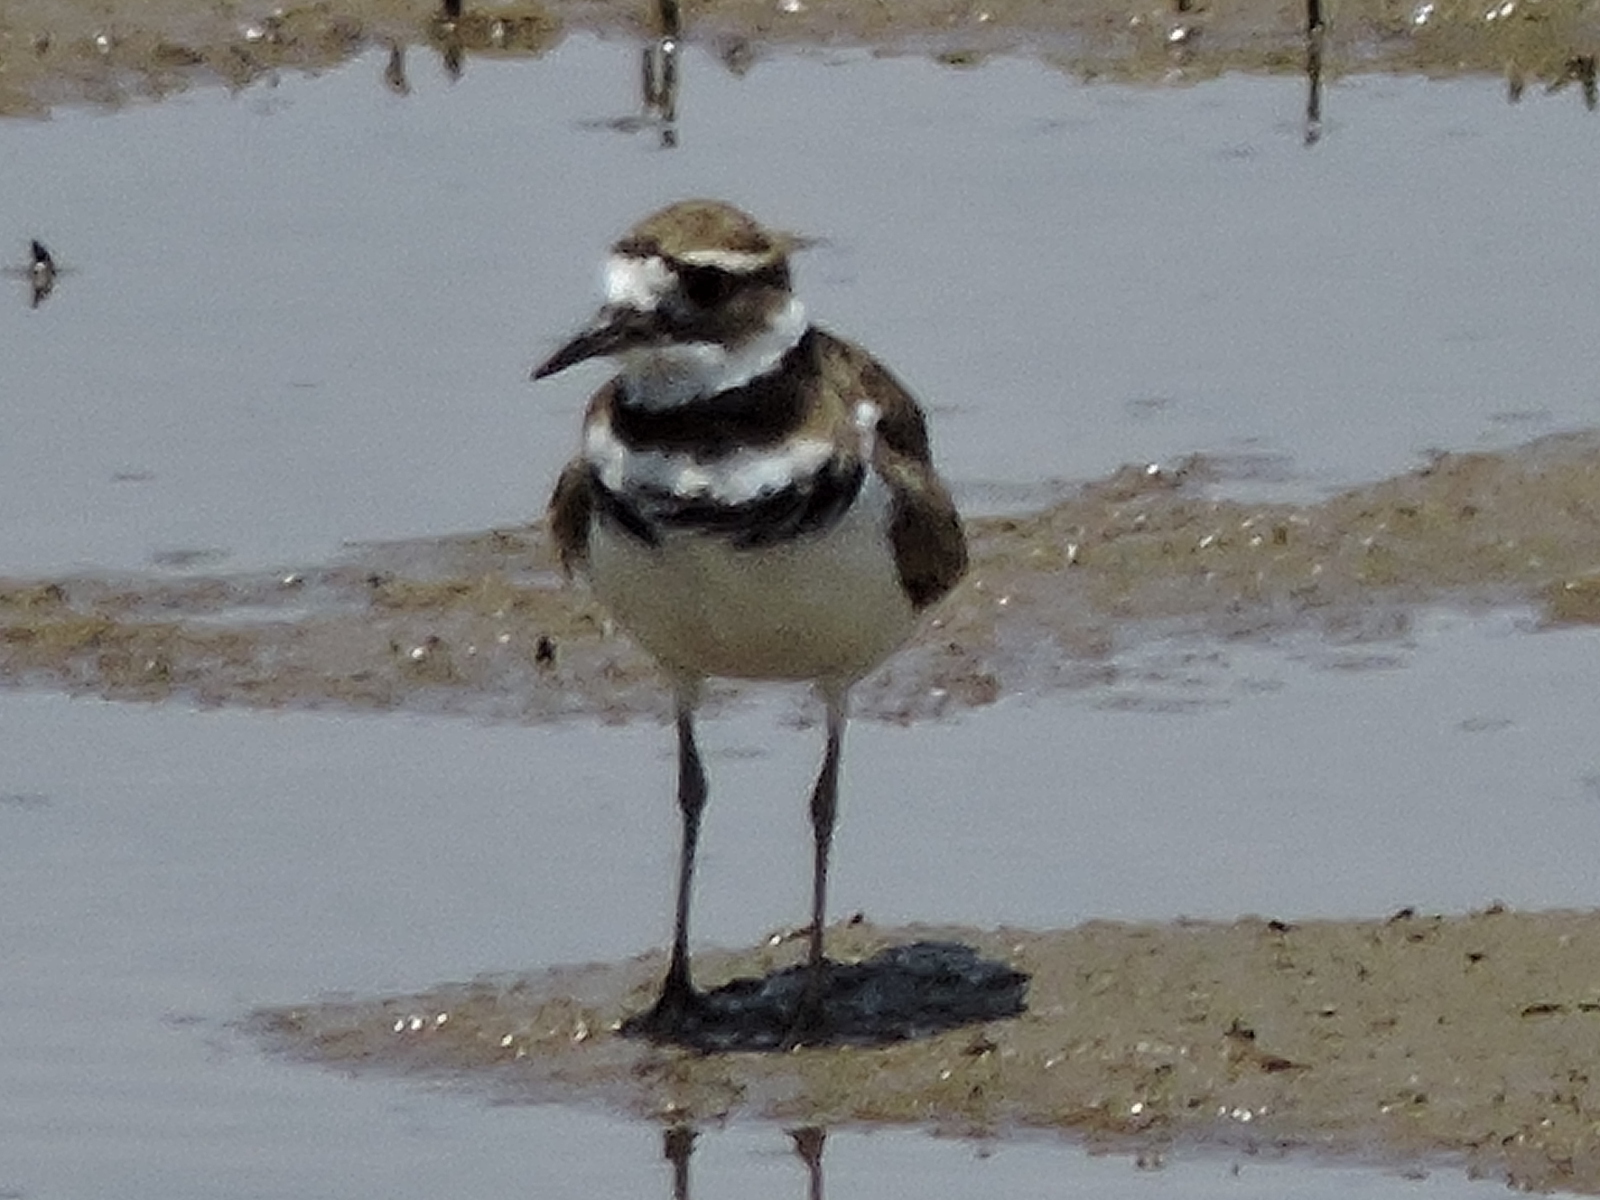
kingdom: Animalia
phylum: Chordata
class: Aves
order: Charadriiformes
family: Charadriidae
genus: Charadrius
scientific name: Charadrius vociferus
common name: Killdeer
